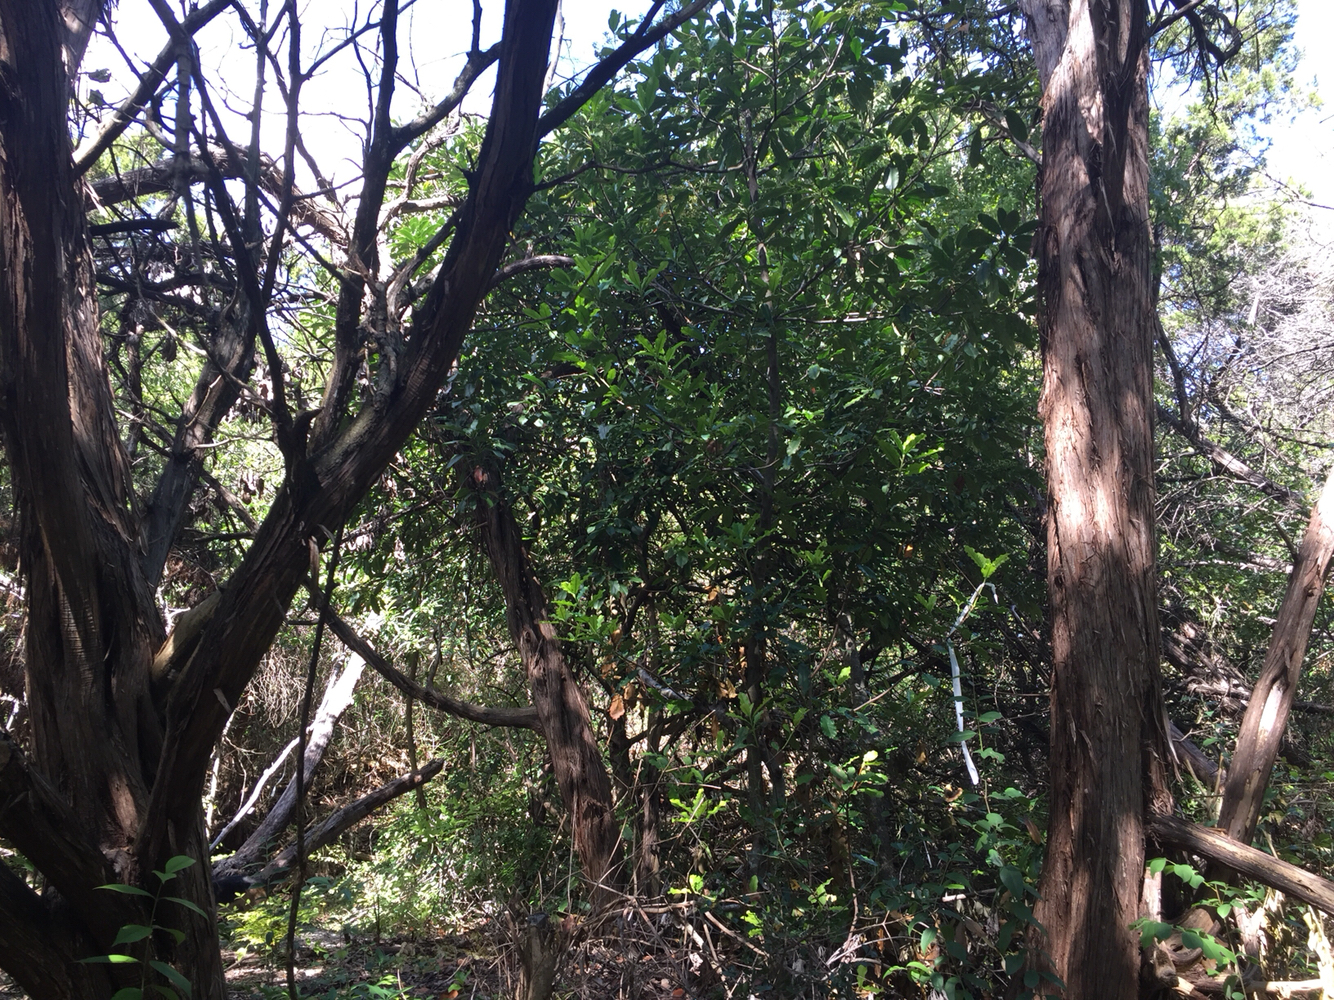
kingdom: Plantae
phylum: Tracheophyta
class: Pinopsida
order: Pinales
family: Cupressaceae
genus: Juniperus
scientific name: Juniperus ashei
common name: Mexican juniper
